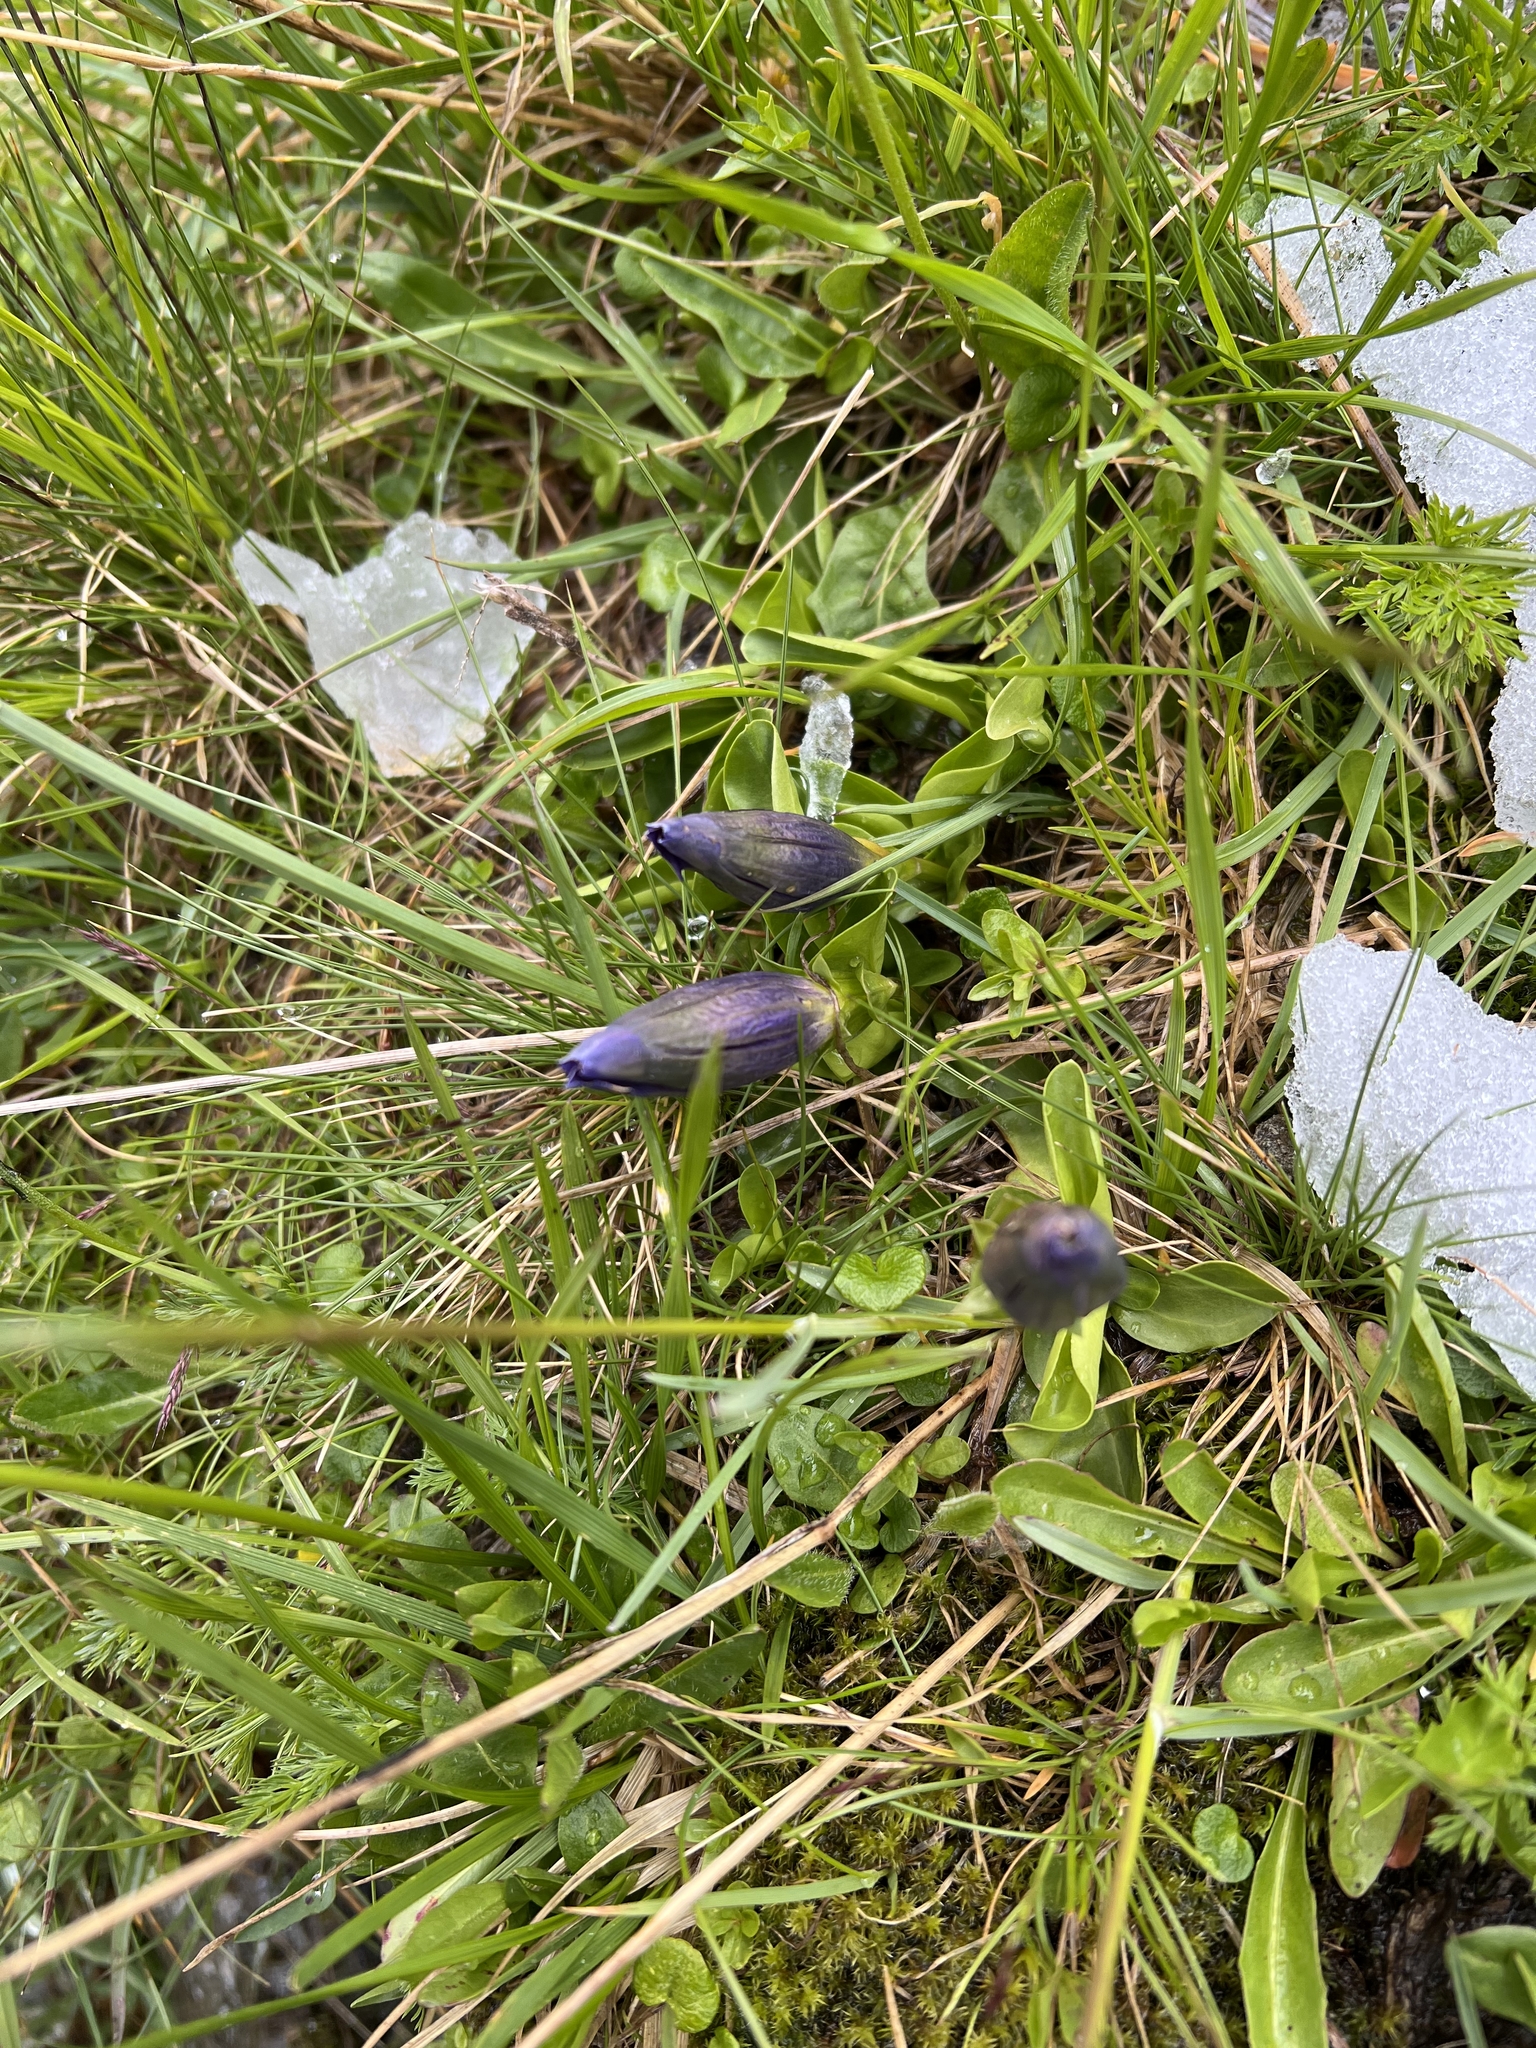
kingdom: Plantae
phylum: Tracheophyta
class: Magnoliopsida
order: Gentianales
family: Gentianaceae
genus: Gentiana
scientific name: Gentiana acaulis
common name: Trumpet gentian
